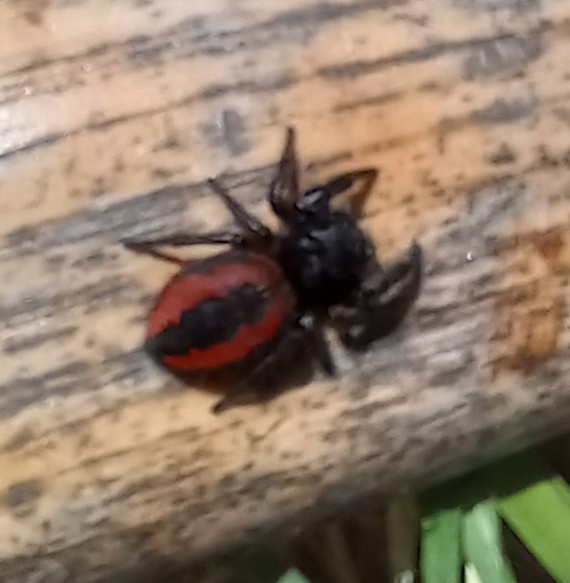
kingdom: Animalia
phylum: Arthropoda
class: Arachnida
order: Araneae
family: Salticidae
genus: Phidippus
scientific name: Phidippus johnsoni
